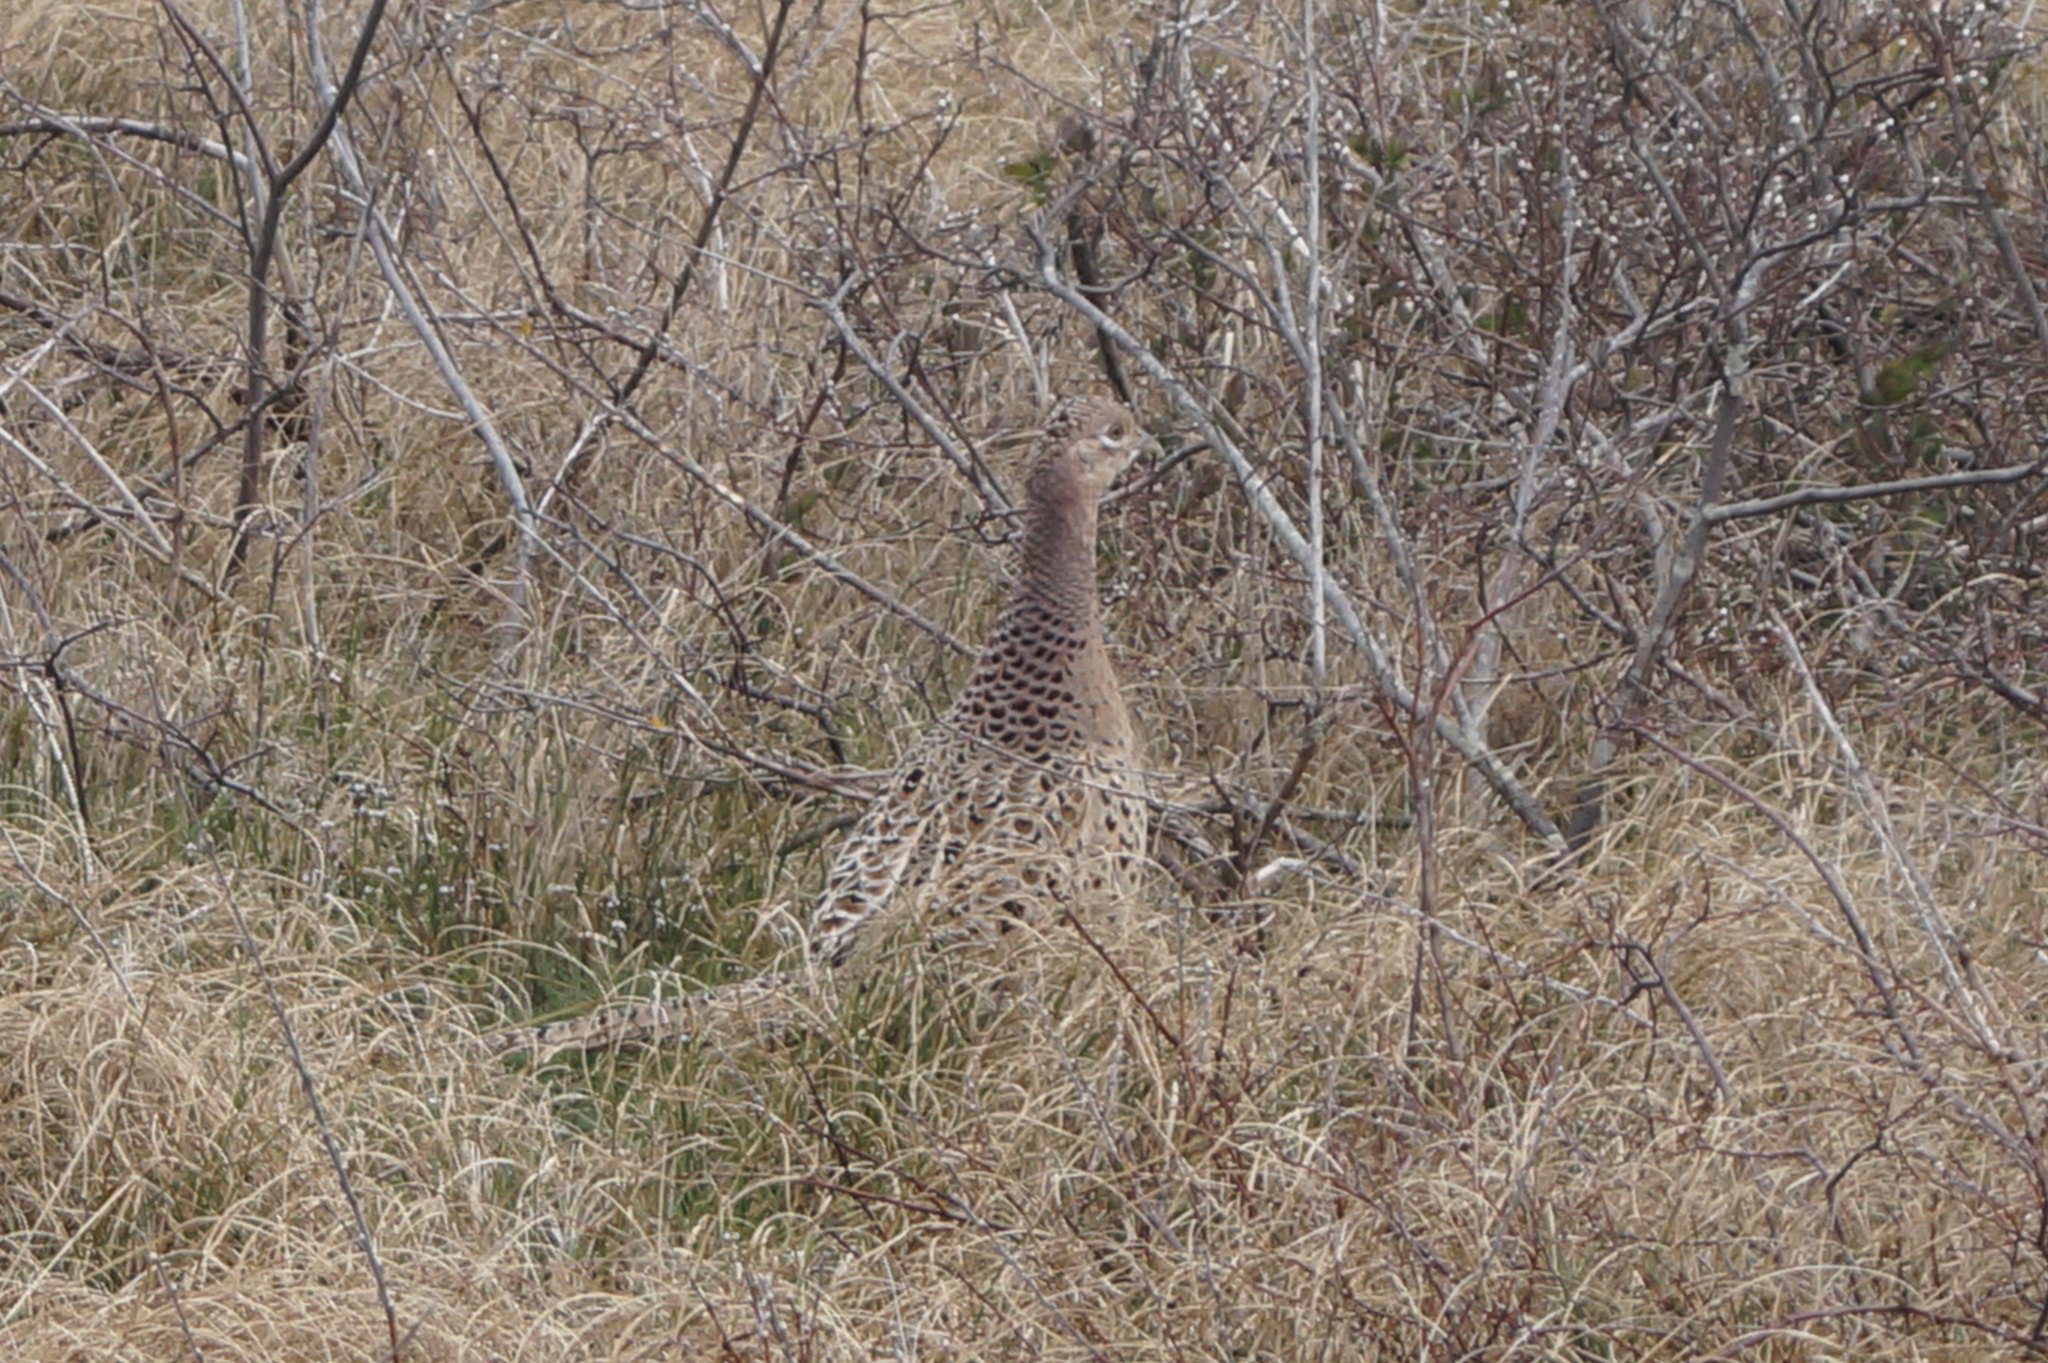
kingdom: Animalia
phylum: Chordata
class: Aves
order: Galliformes
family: Phasianidae
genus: Phasianus
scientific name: Phasianus colchicus
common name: Common pheasant
